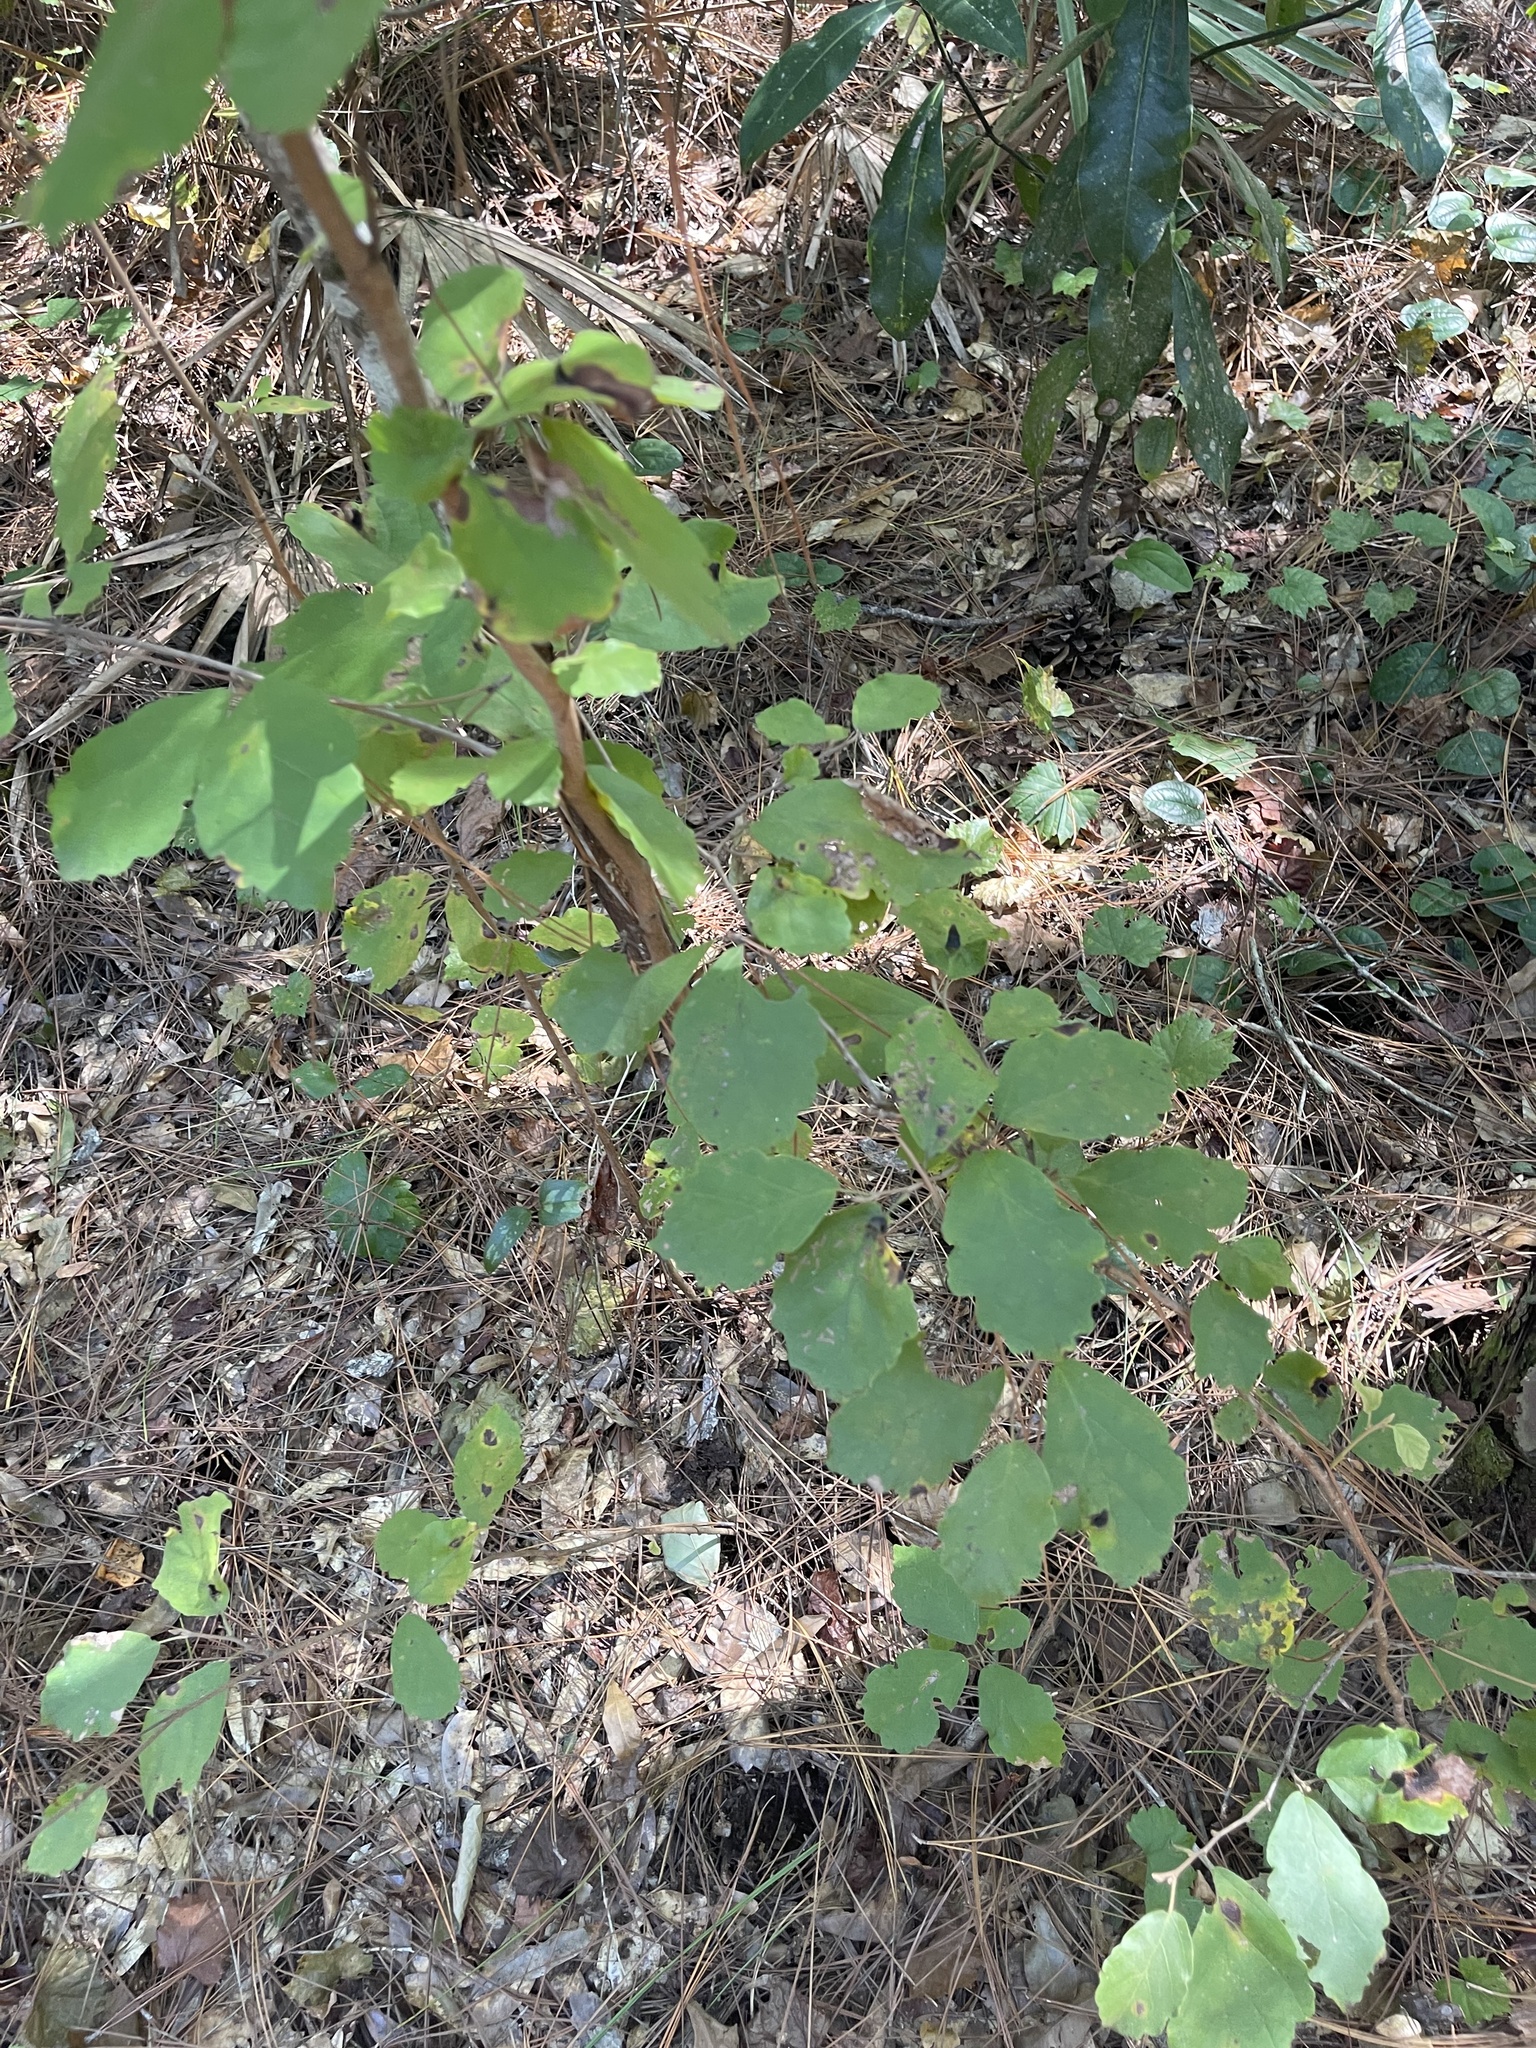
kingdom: Plantae
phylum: Tracheophyta
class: Magnoliopsida
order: Saxifragales
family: Hamamelidaceae
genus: Hamamelis
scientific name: Hamamelis virginiana
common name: Witch-hazel
